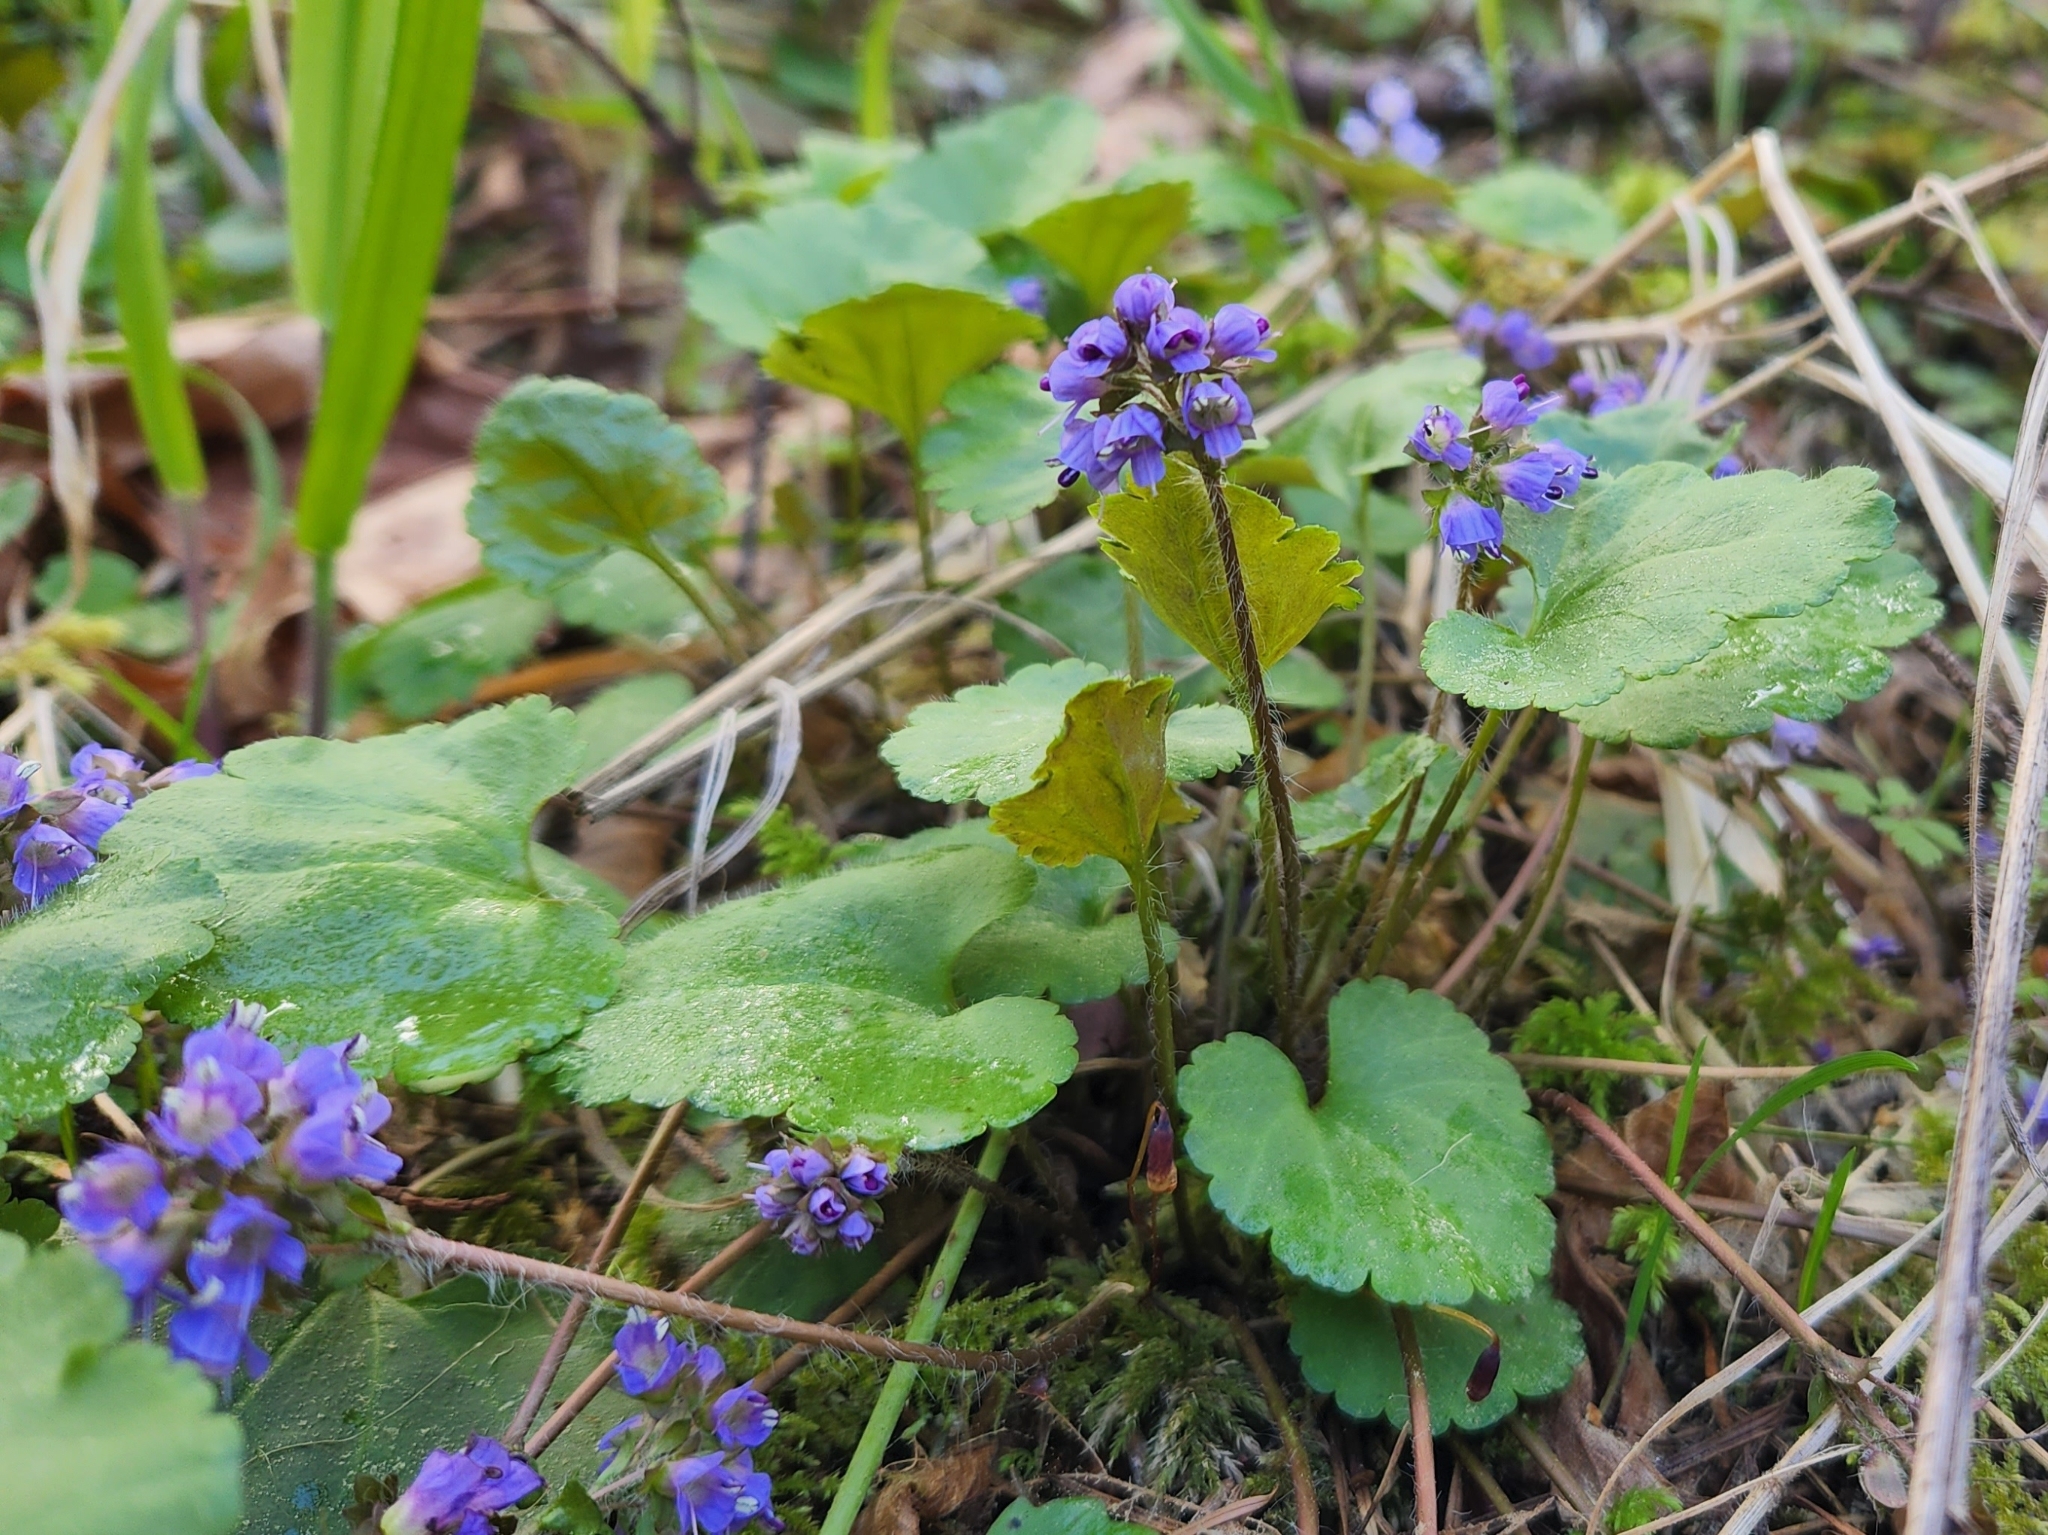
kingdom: Plantae
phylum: Tracheophyta
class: Magnoliopsida
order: Lamiales
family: Plantaginaceae
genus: Synthyris
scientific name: Synthyris reniformis
